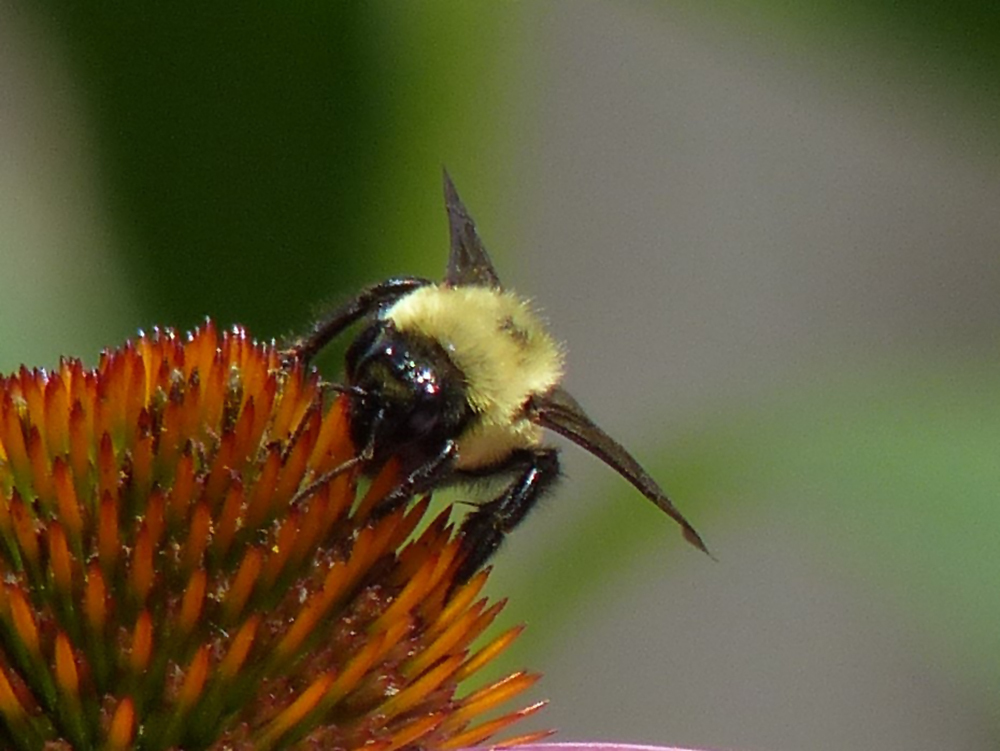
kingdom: Animalia
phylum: Arthropoda
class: Insecta
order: Hymenoptera
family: Apidae
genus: Bombus
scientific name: Bombus griseocollis
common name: Brown-belted bumble bee
